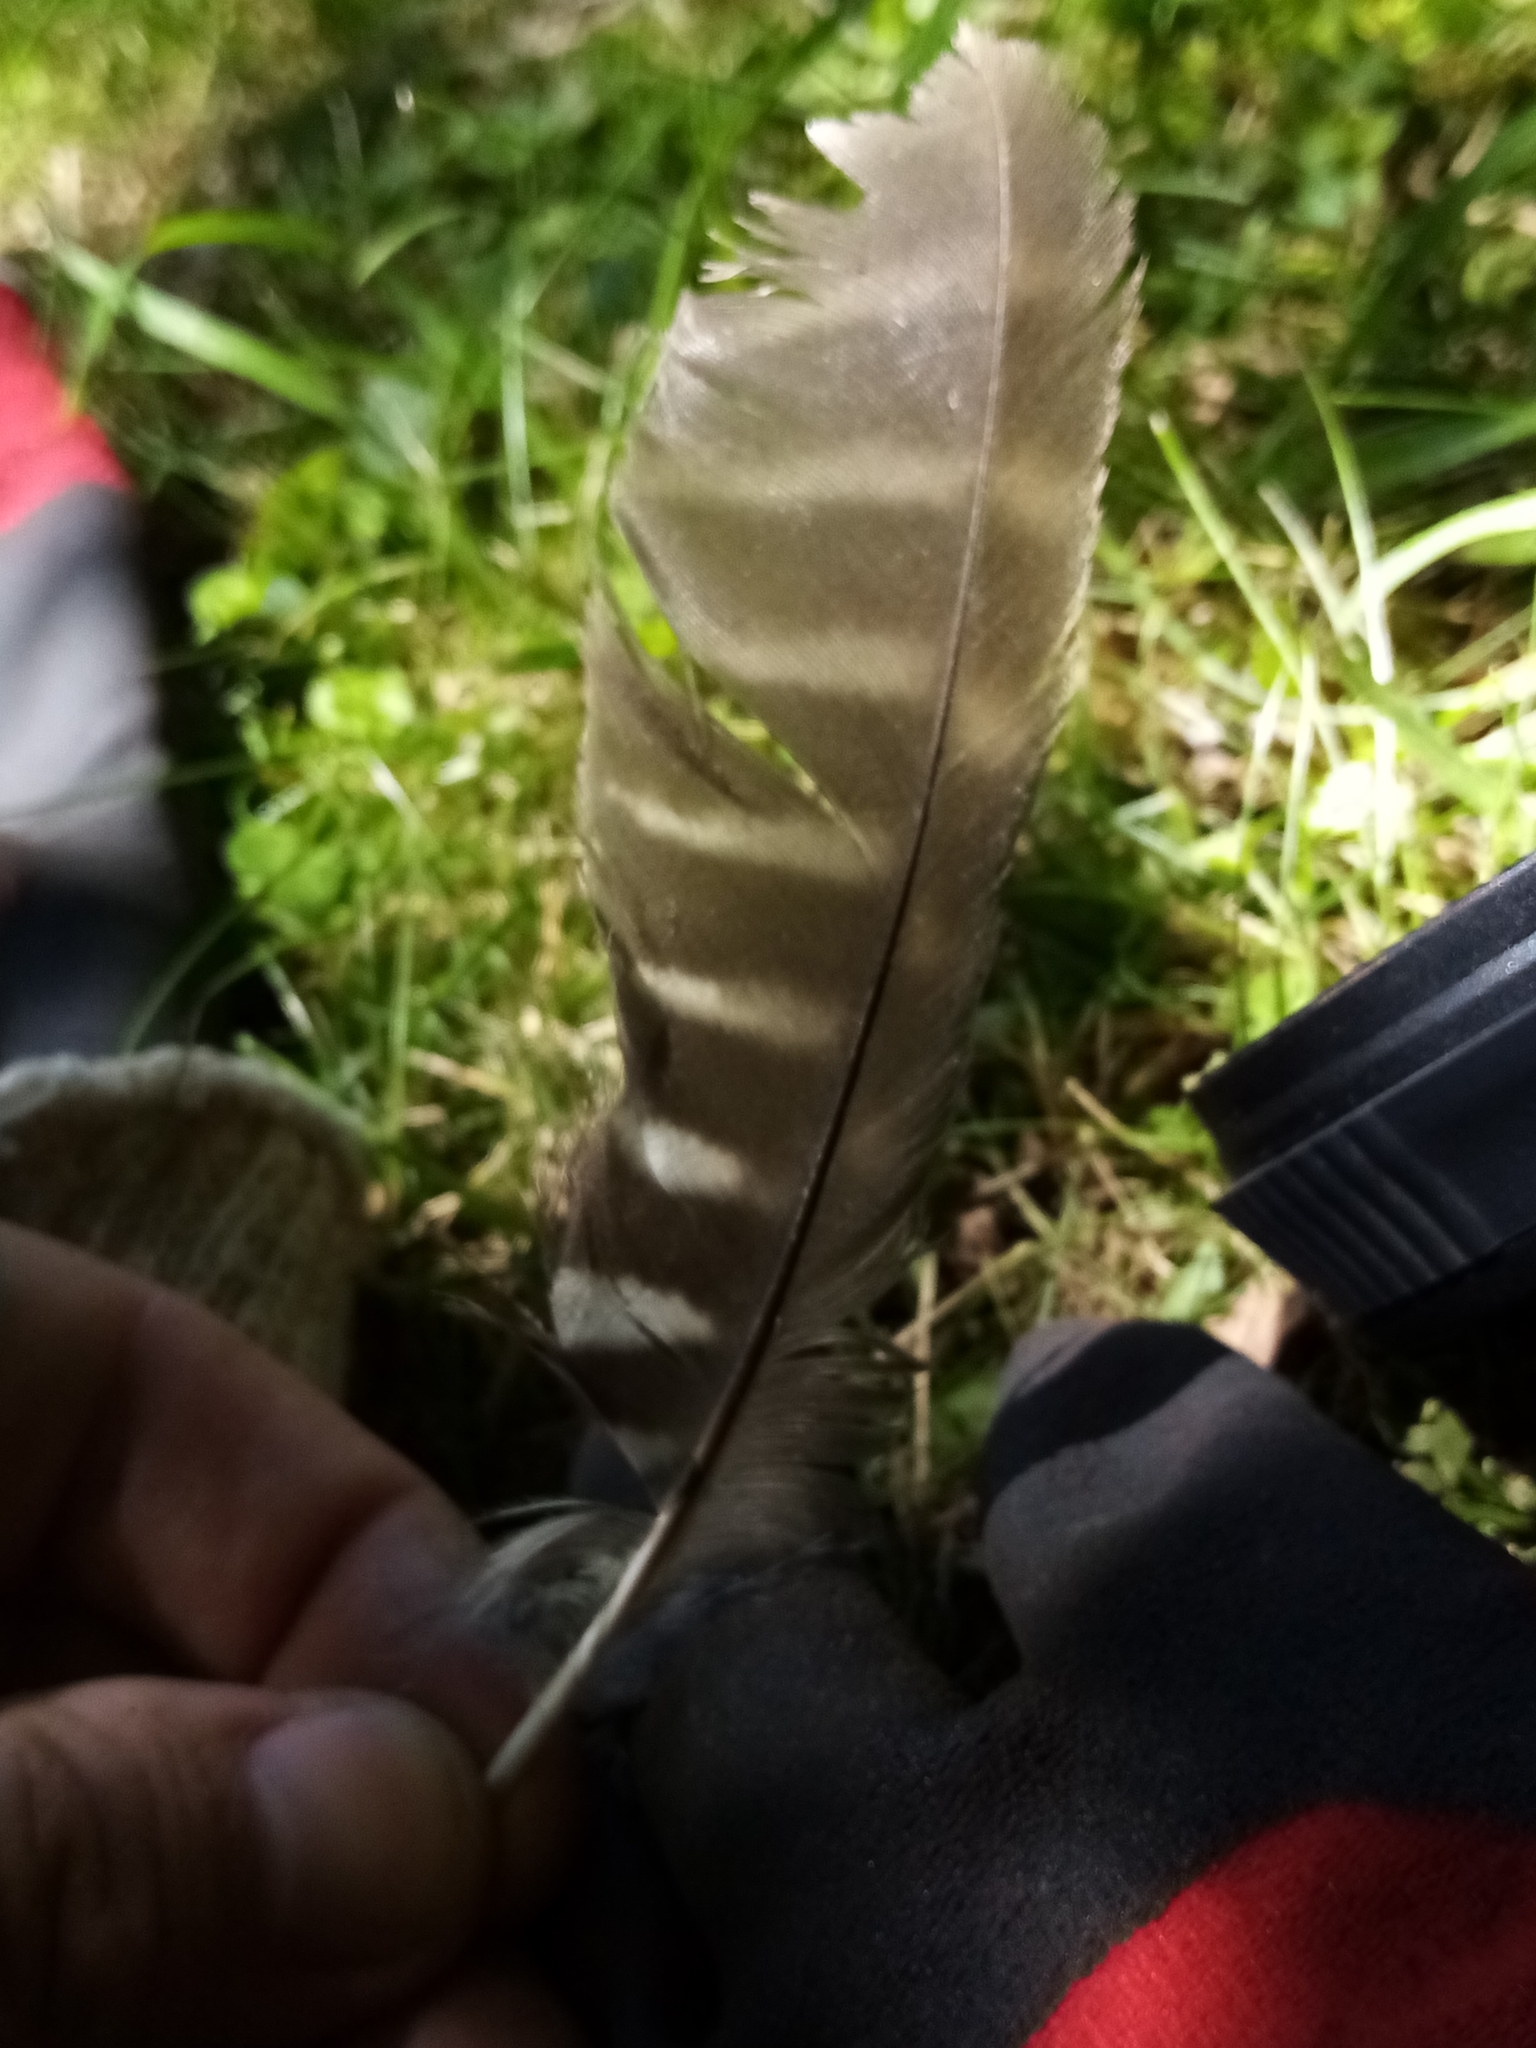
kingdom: Animalia
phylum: Chordata
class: Aves
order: Strigiformes
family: Strigidae
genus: Ninox
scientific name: Ninox novaeseelandiae
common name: Morepork
